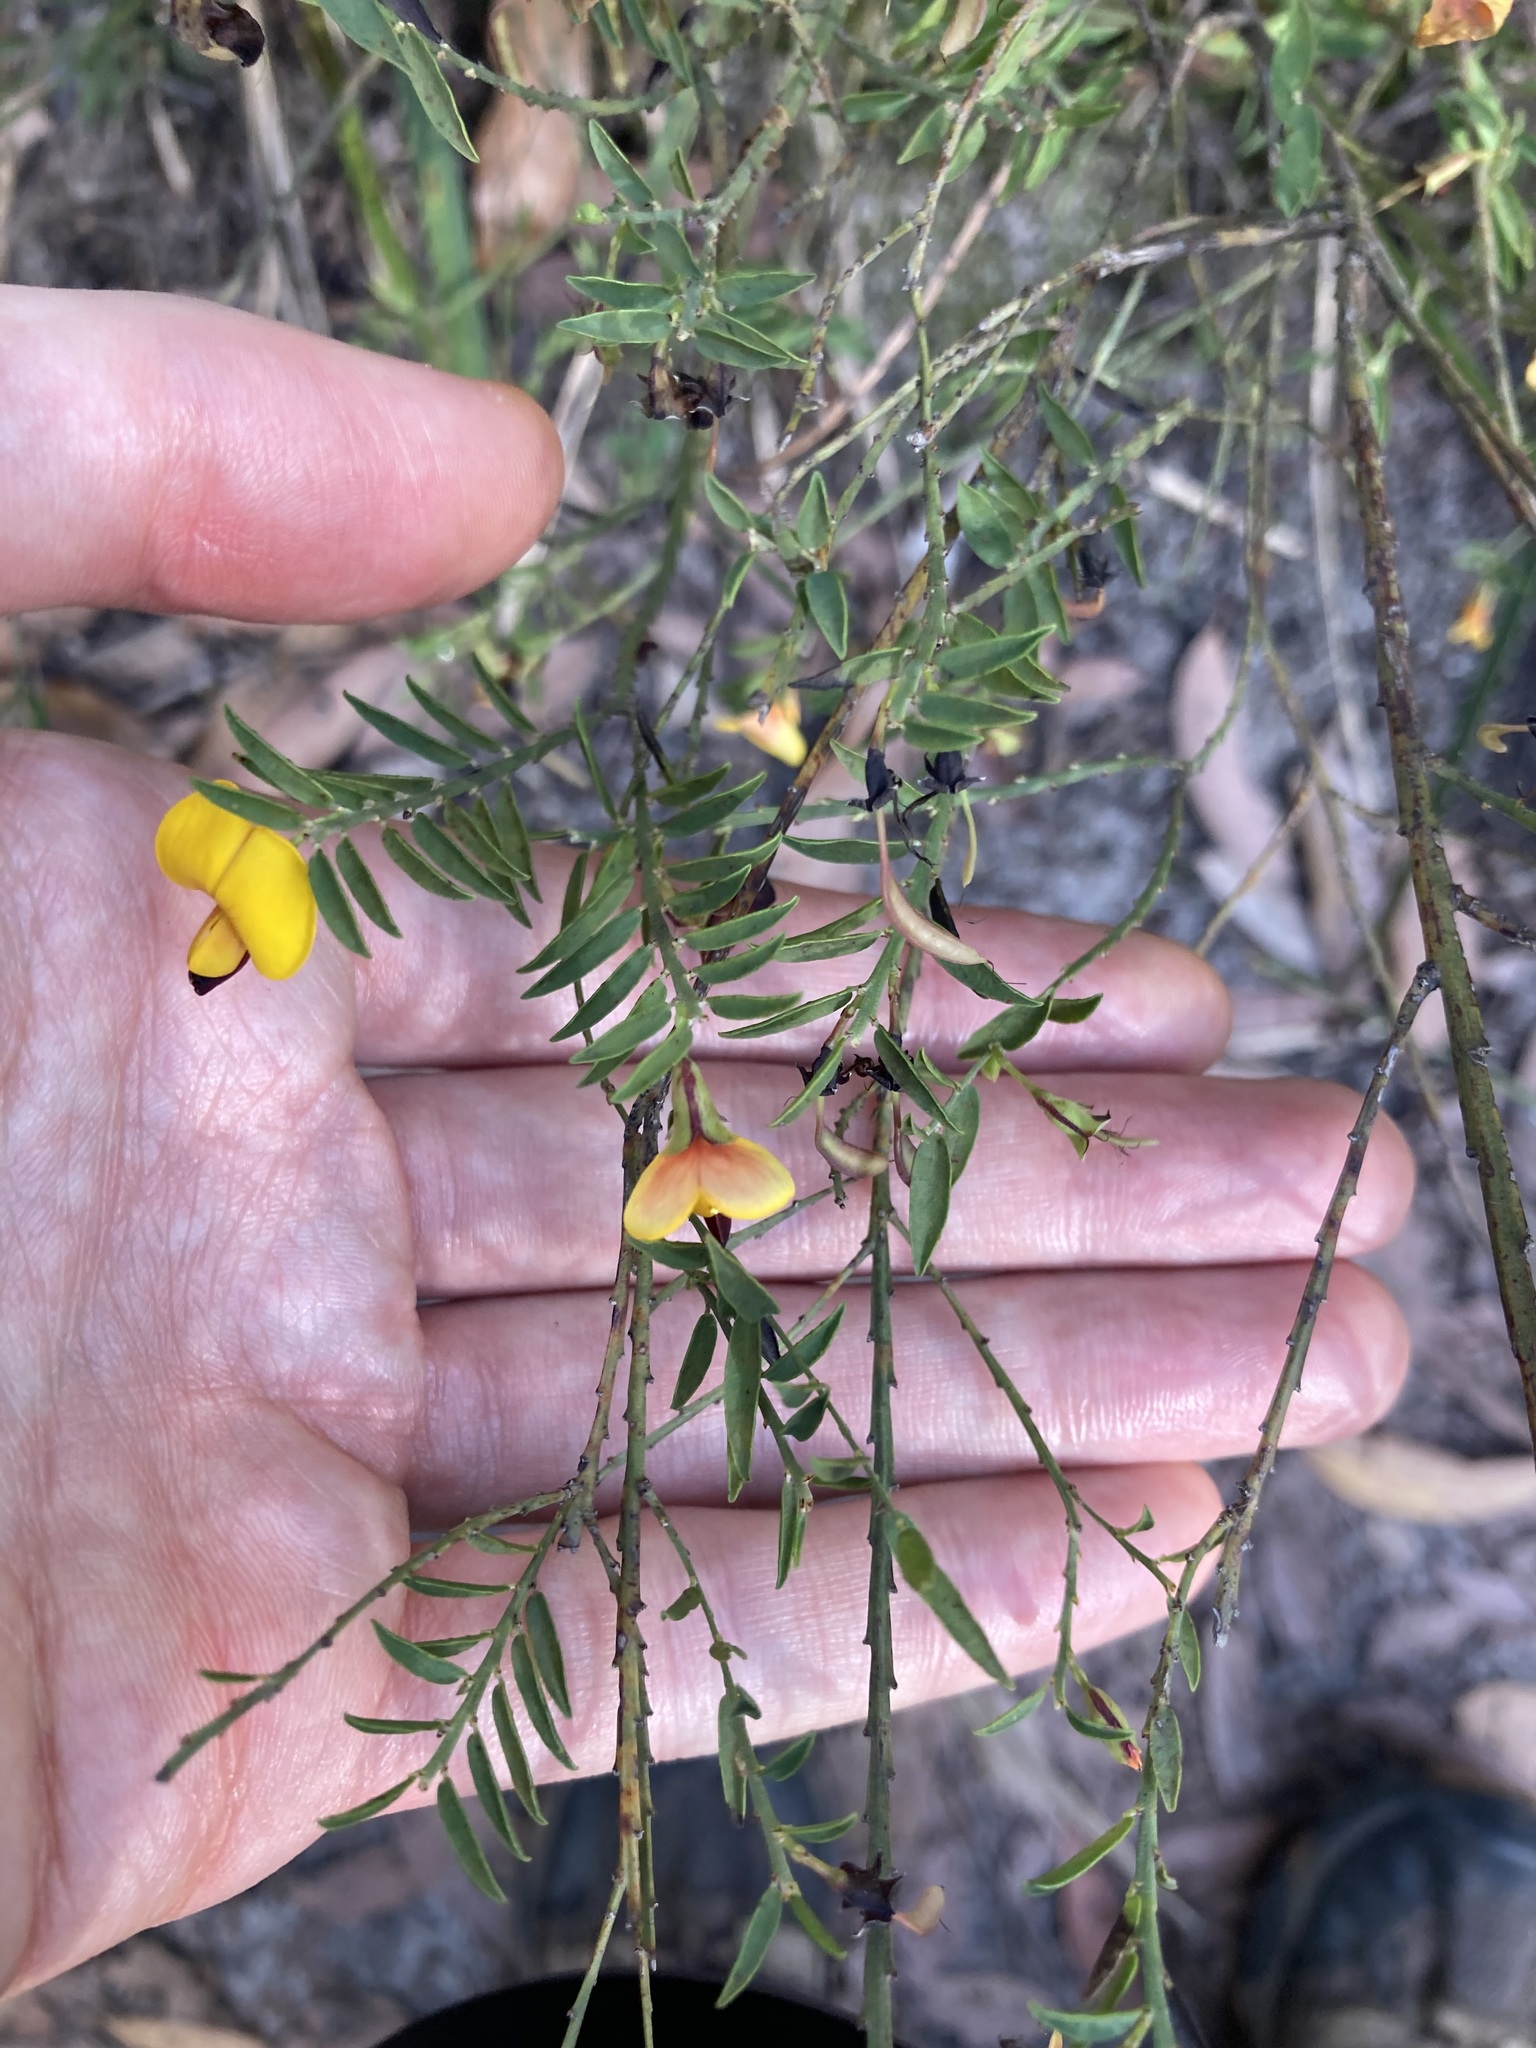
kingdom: Plantae
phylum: Tracheophyta
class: Magnoliopsida
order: Fabales
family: Fabaceae
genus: Bossiaea
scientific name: Bossiaea heterophylla
